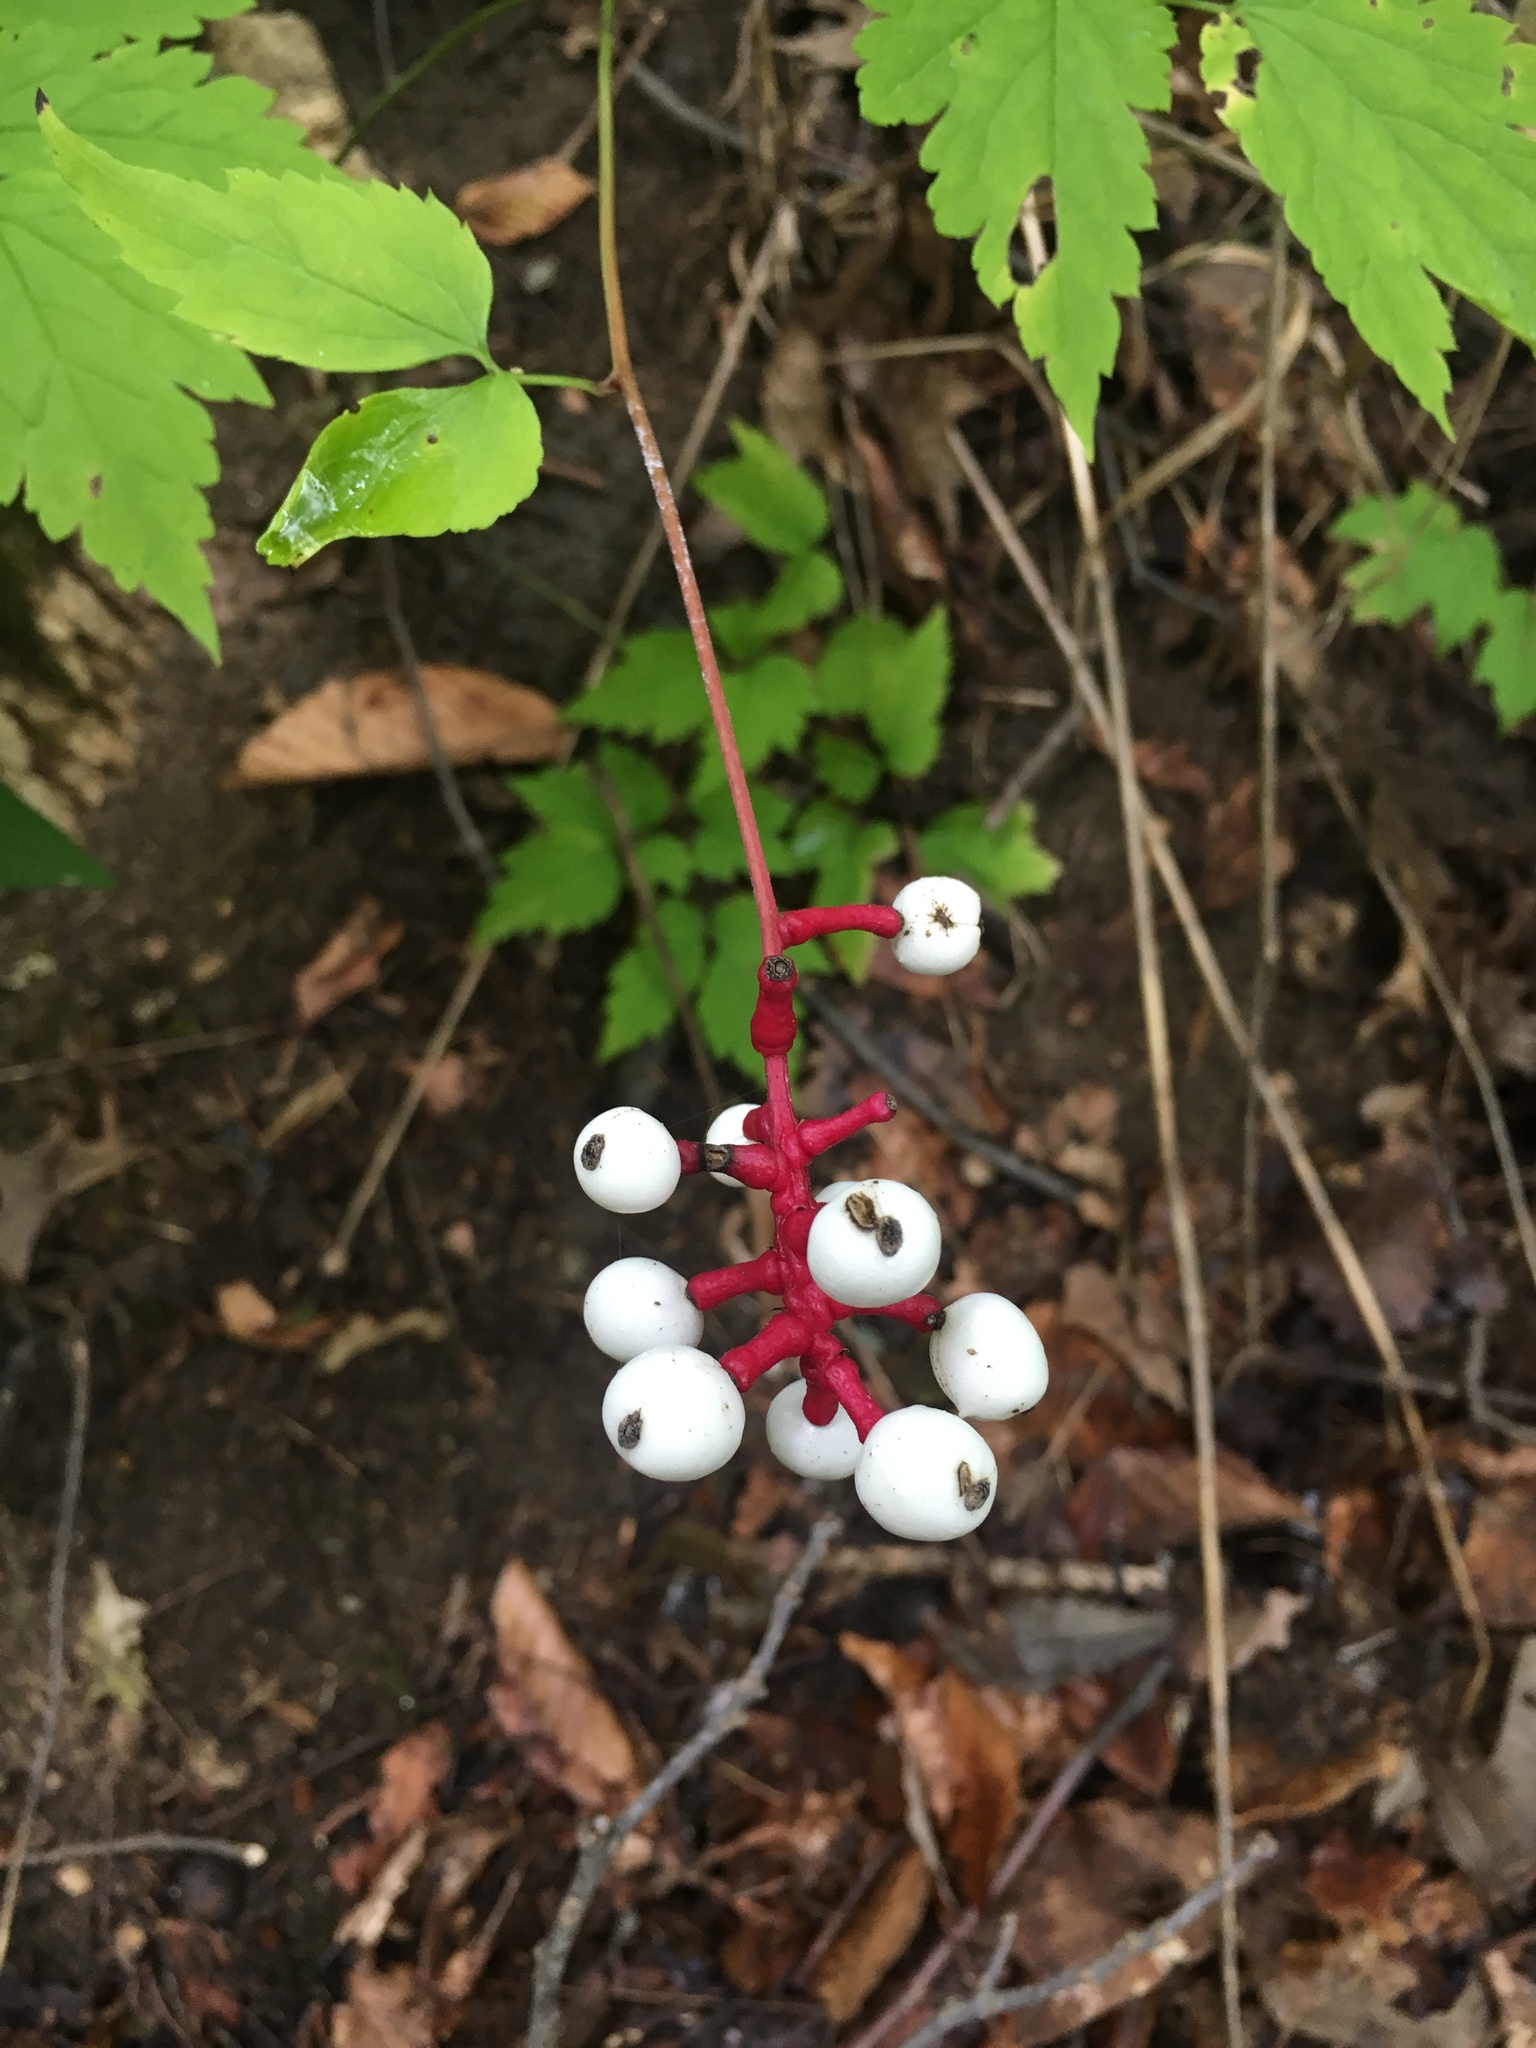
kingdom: Plantae
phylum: Tracheophyta
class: Magnoliopsida
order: Ranunculales
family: Ranunculaceae
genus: Actaea
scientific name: Actaea pachypoda
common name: Doll's-eyes
